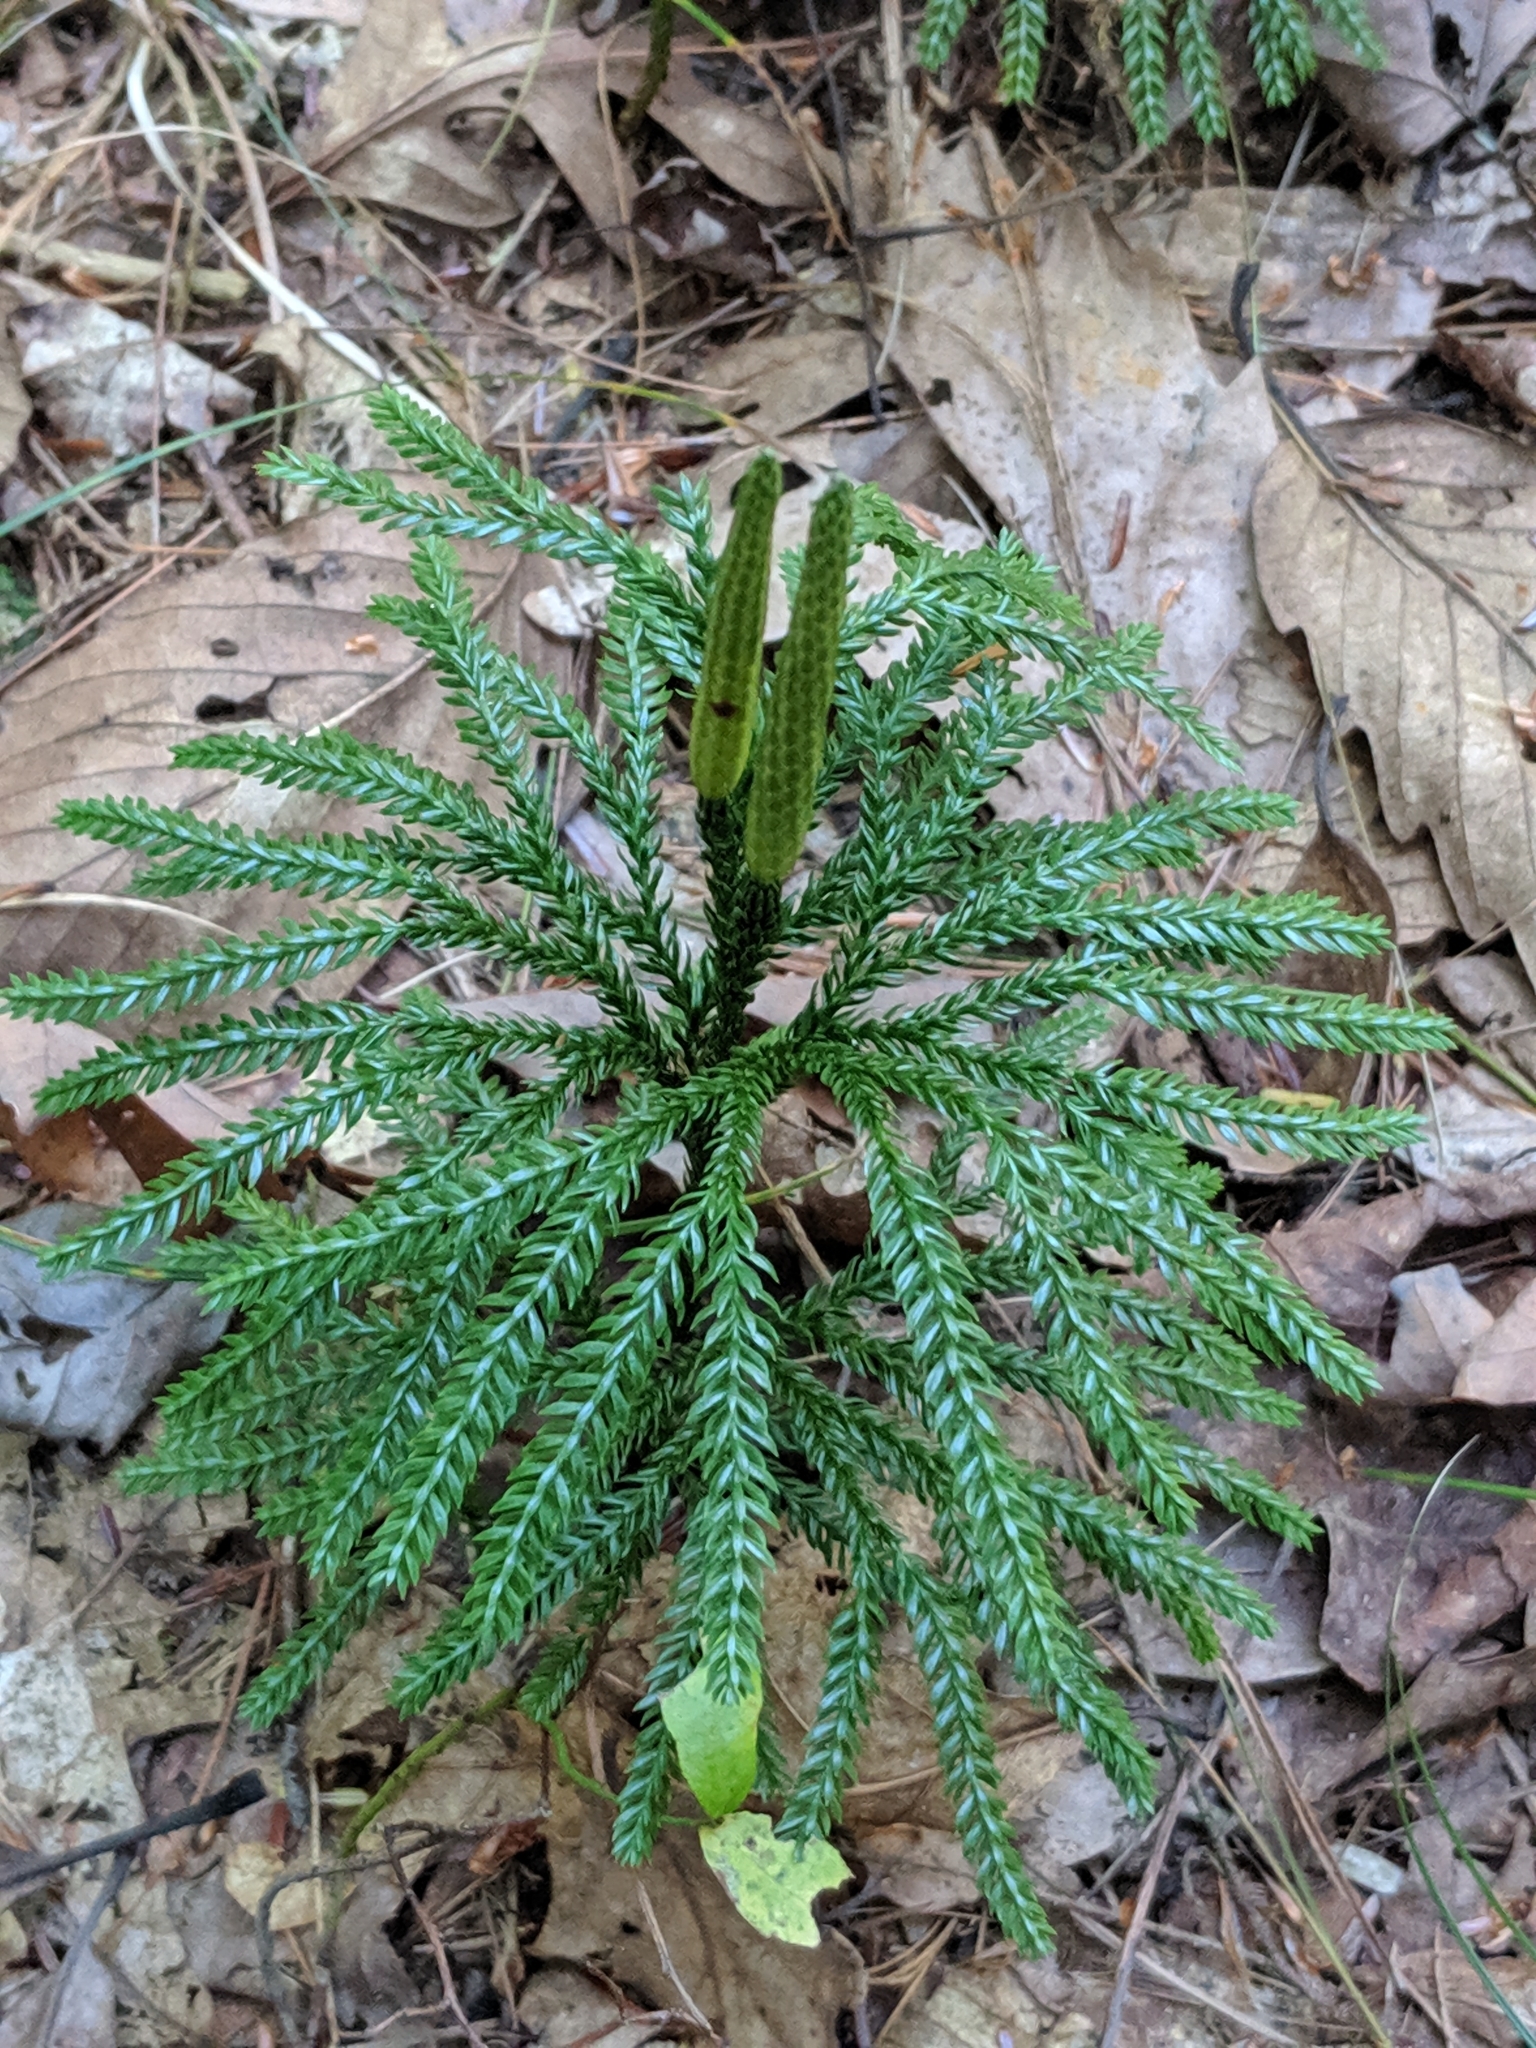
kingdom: Plantae
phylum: Tracheophyta
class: Lycopodiopsida
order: Lycopodiales
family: Lycopodiaceae
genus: Dendrolycopodium
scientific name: Dendrolycopodium obscurum
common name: Common ground-pine
